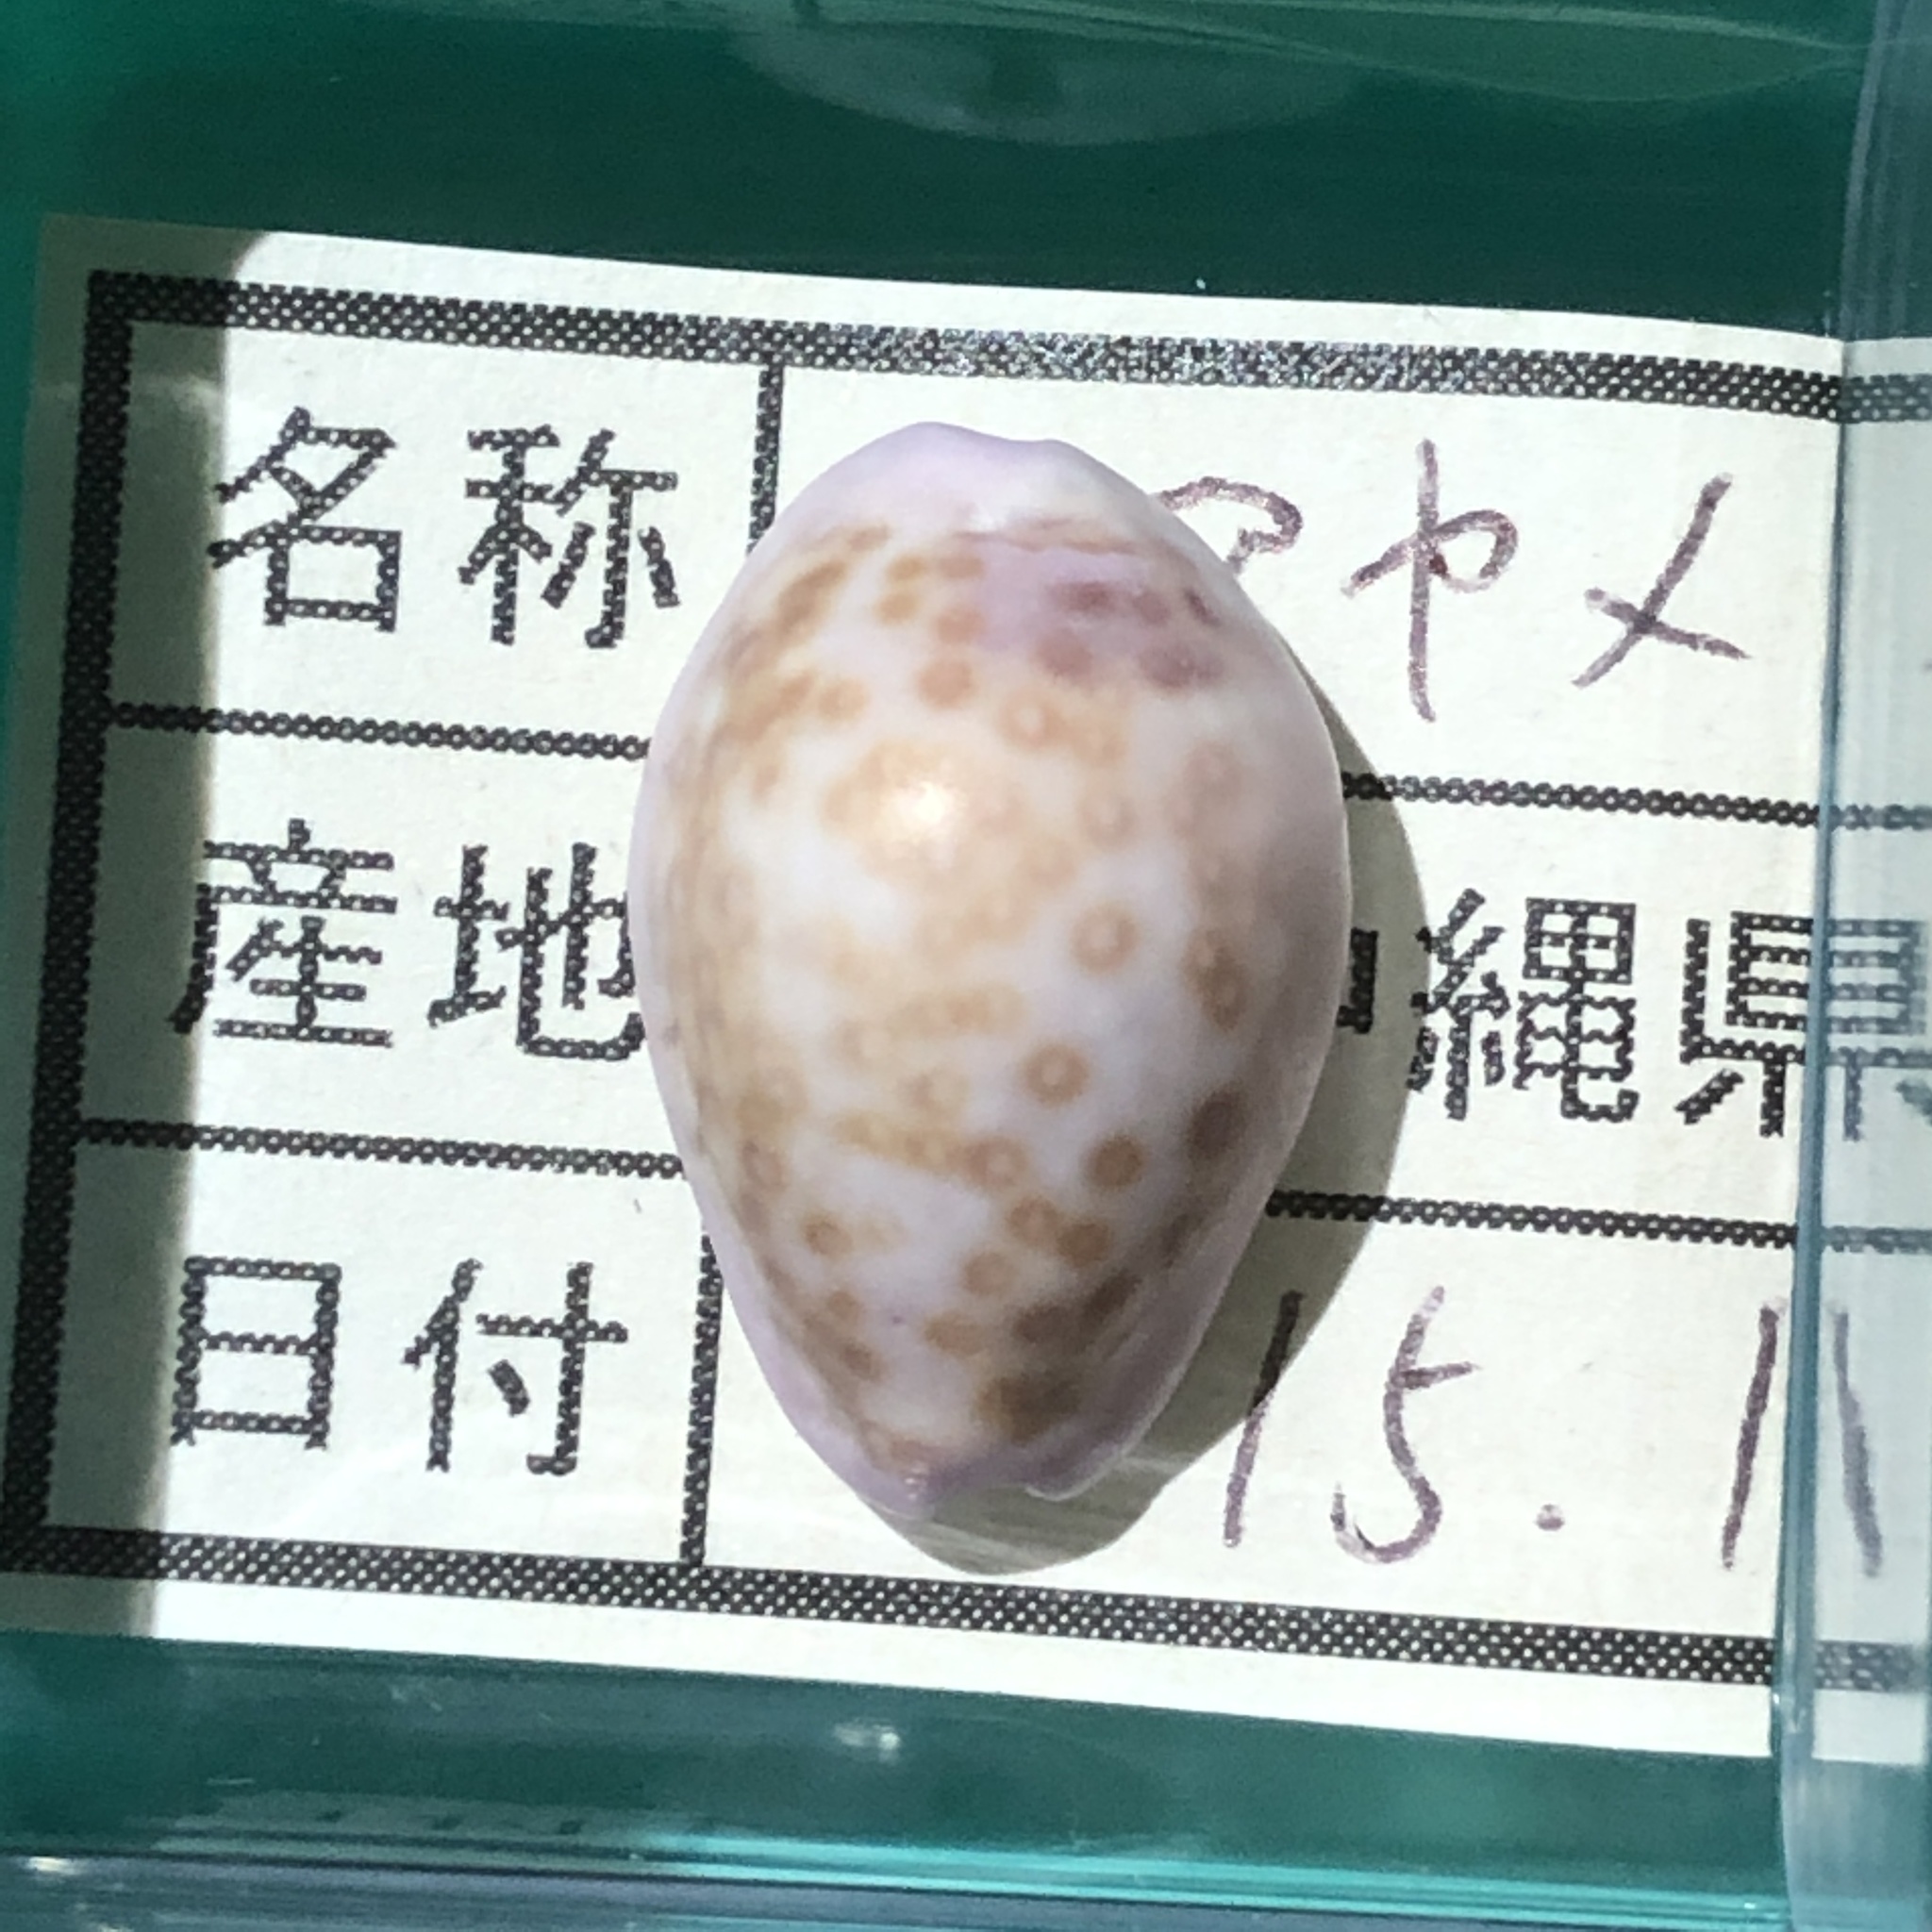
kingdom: Animalia
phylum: Mollusca
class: Gastropoda
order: Littorinimorpha
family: Cypraeidae
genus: Naria
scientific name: Naria poraria
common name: Cowrie
